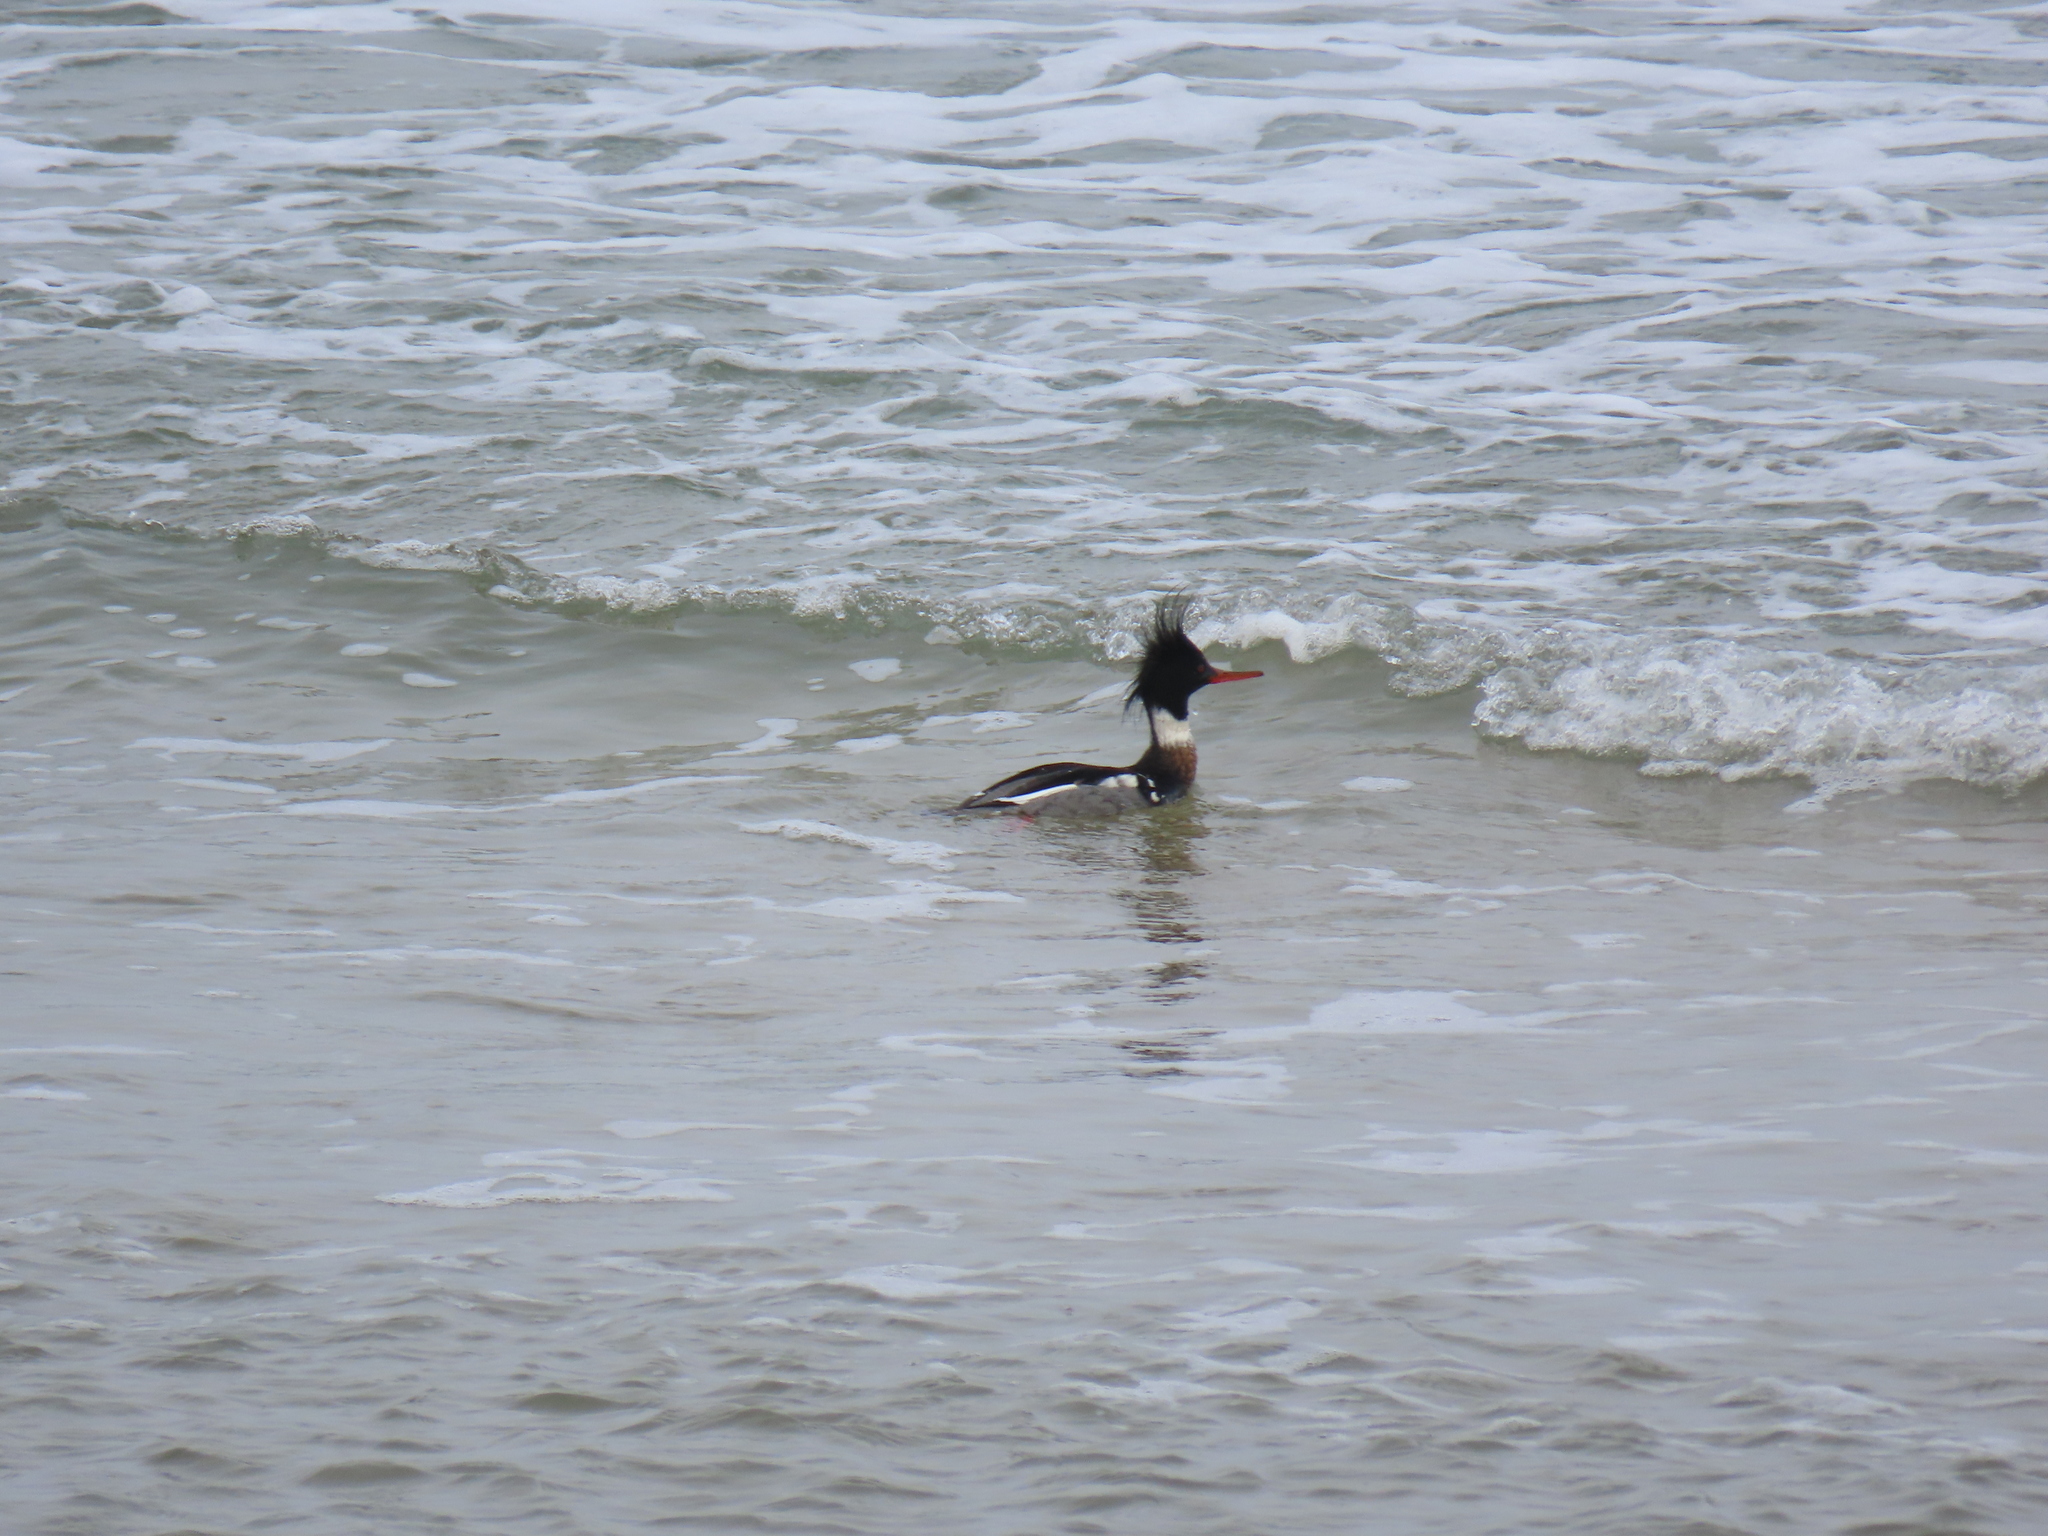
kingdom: Animalia
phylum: Chordata
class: Aves
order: Anseriformes
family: Anatidae
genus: Mergus
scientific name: Mergus serrator
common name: Red-breasted merganser
